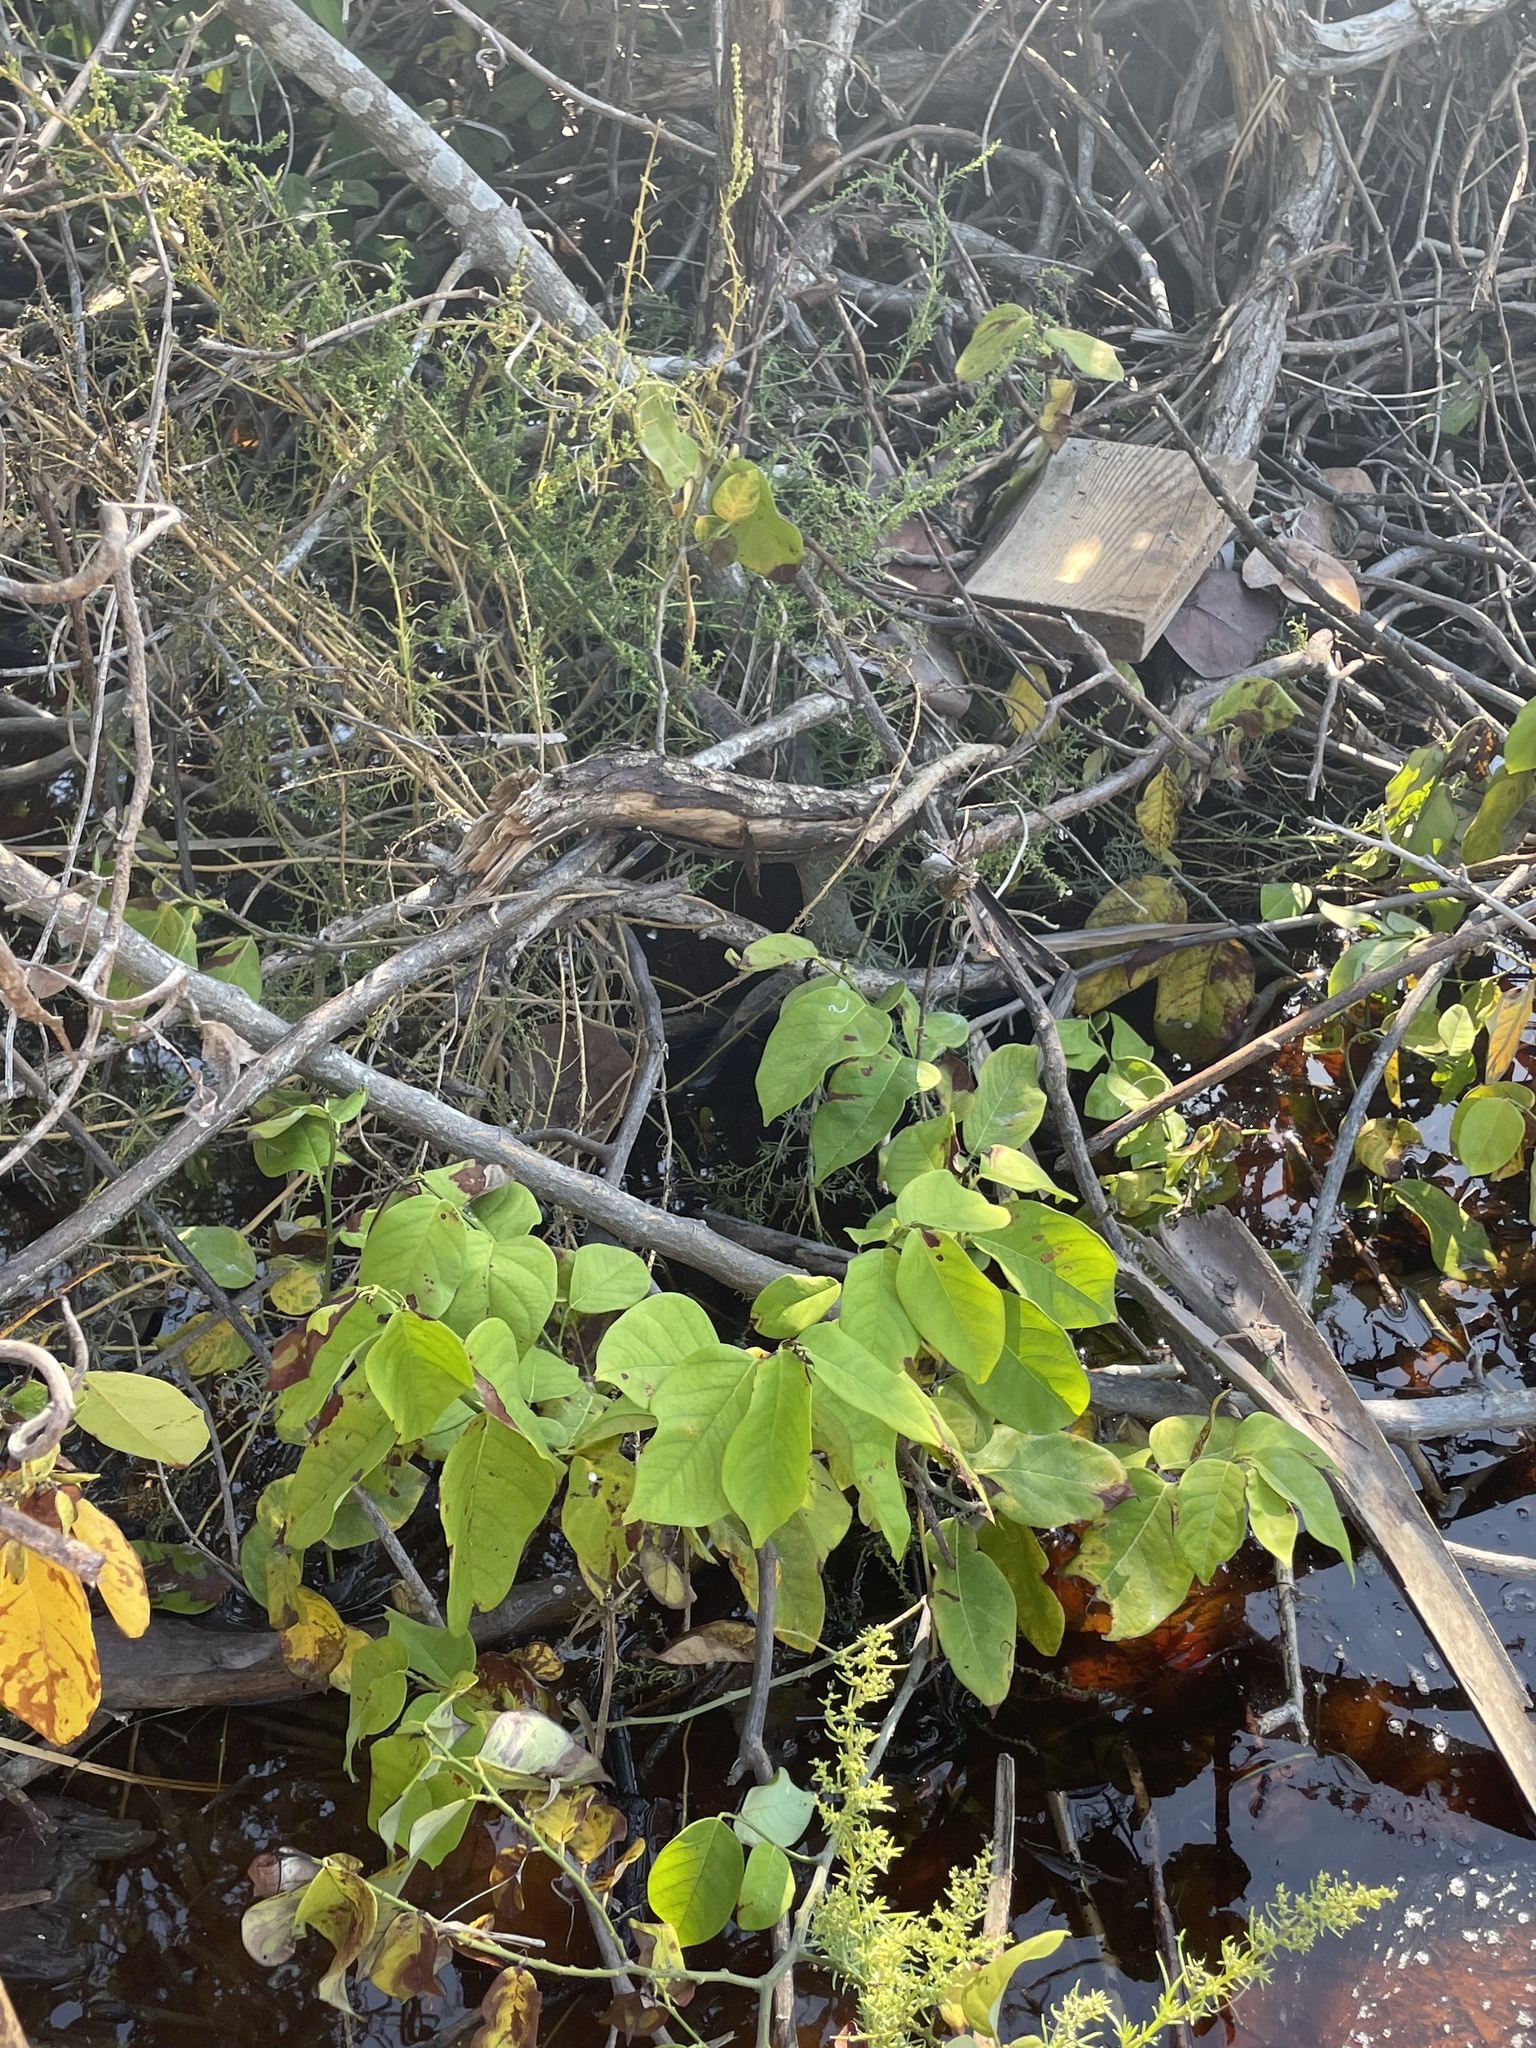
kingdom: Plantae
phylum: Tracheophyta
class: Magnoliopsida
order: Fabales
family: Fabaceae
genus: Dalbergia
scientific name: Dalbergia ecastaphyllum
